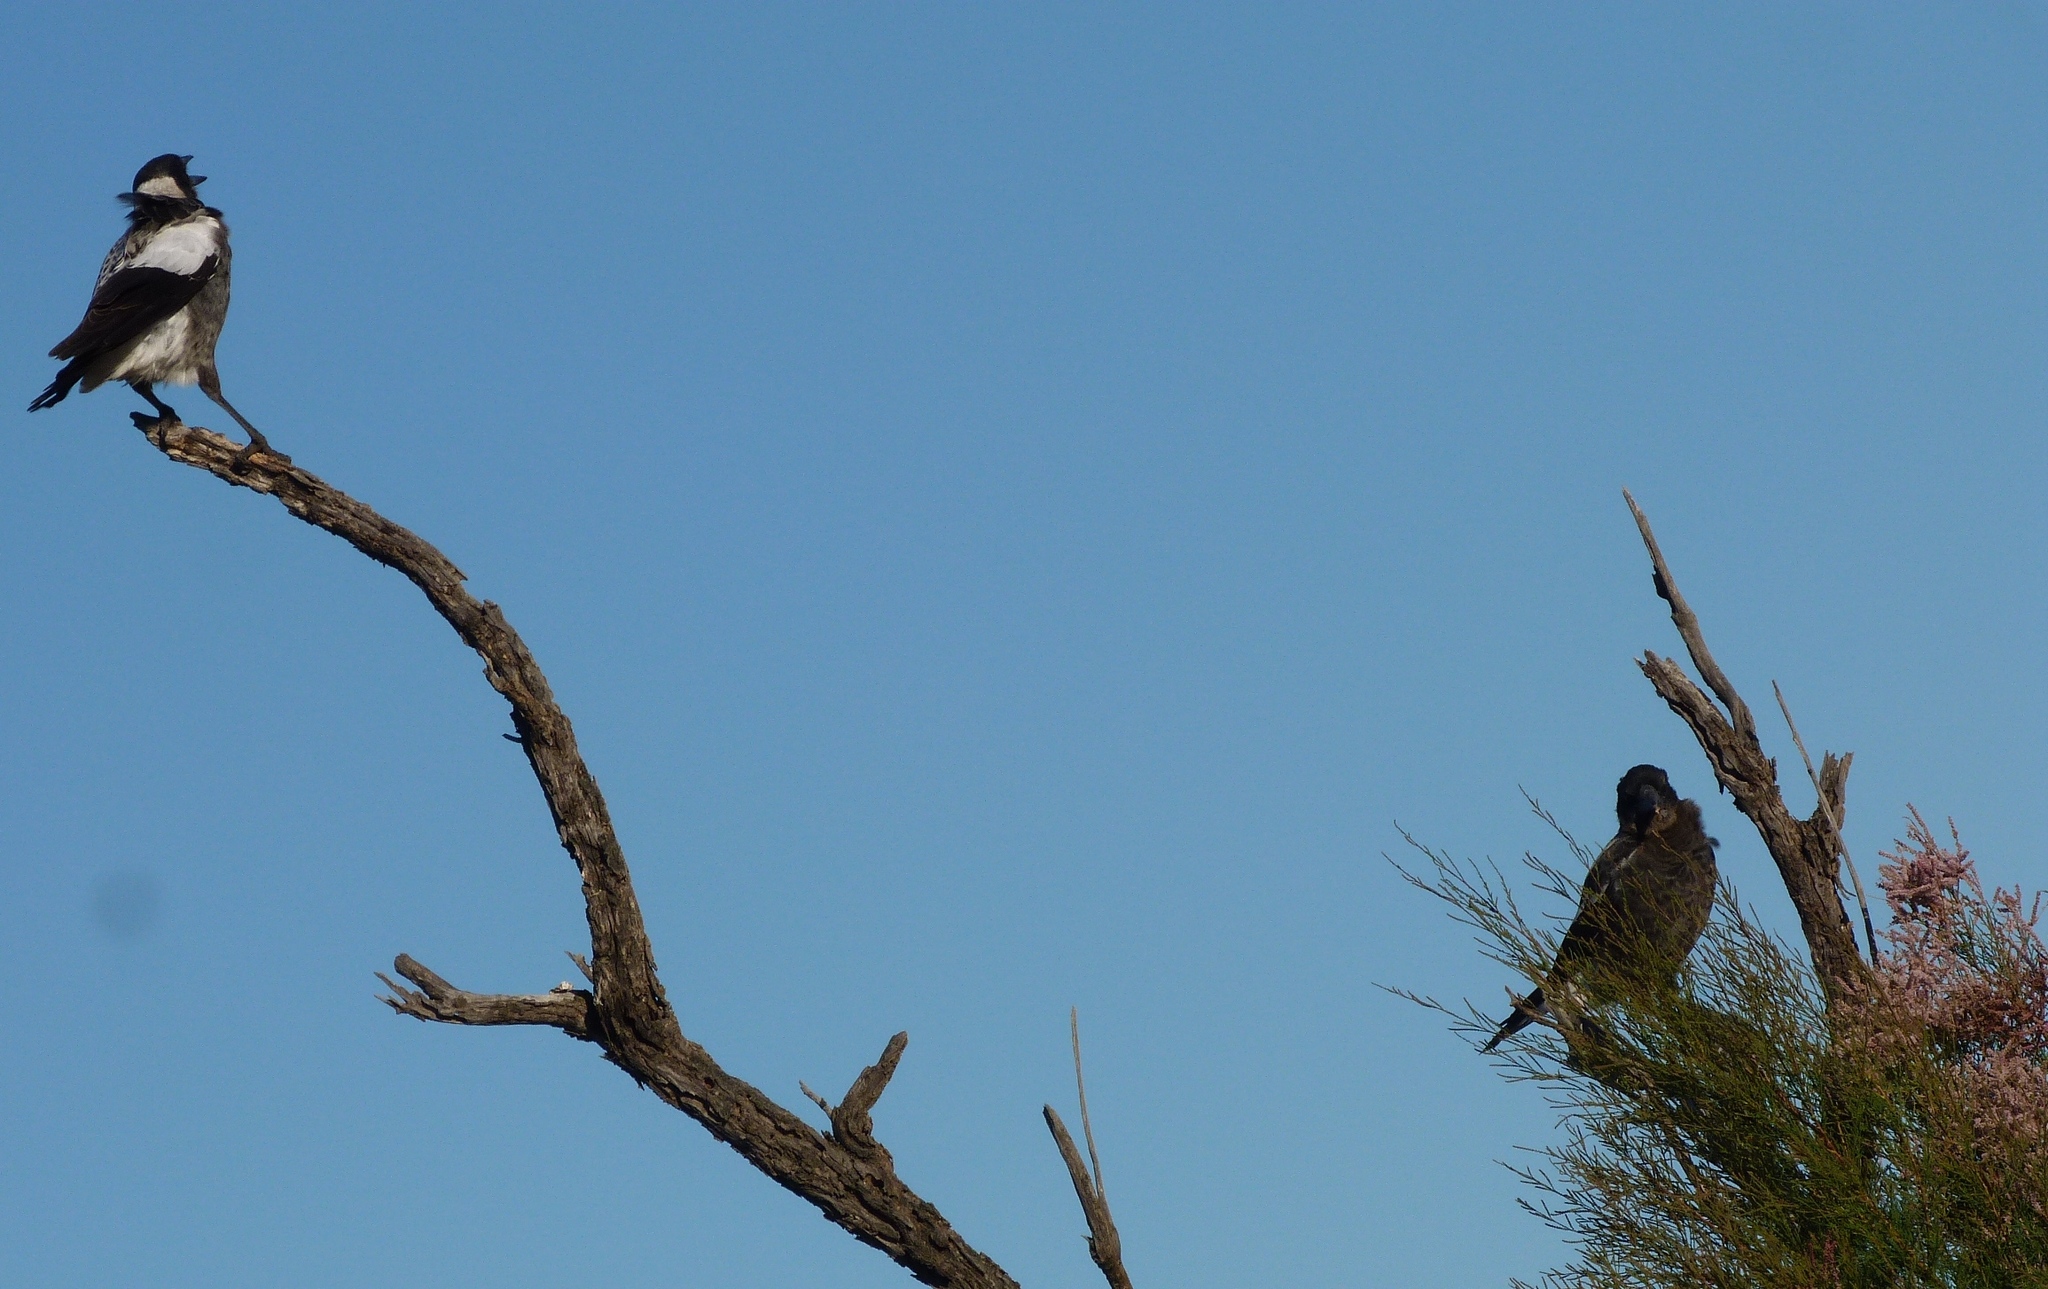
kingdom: Animalia
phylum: Chordata
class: Aves
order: Passeriformes
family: Cracticidae
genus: Gymnorhina
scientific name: Gymnorhina tibicen
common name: Australian magpie
